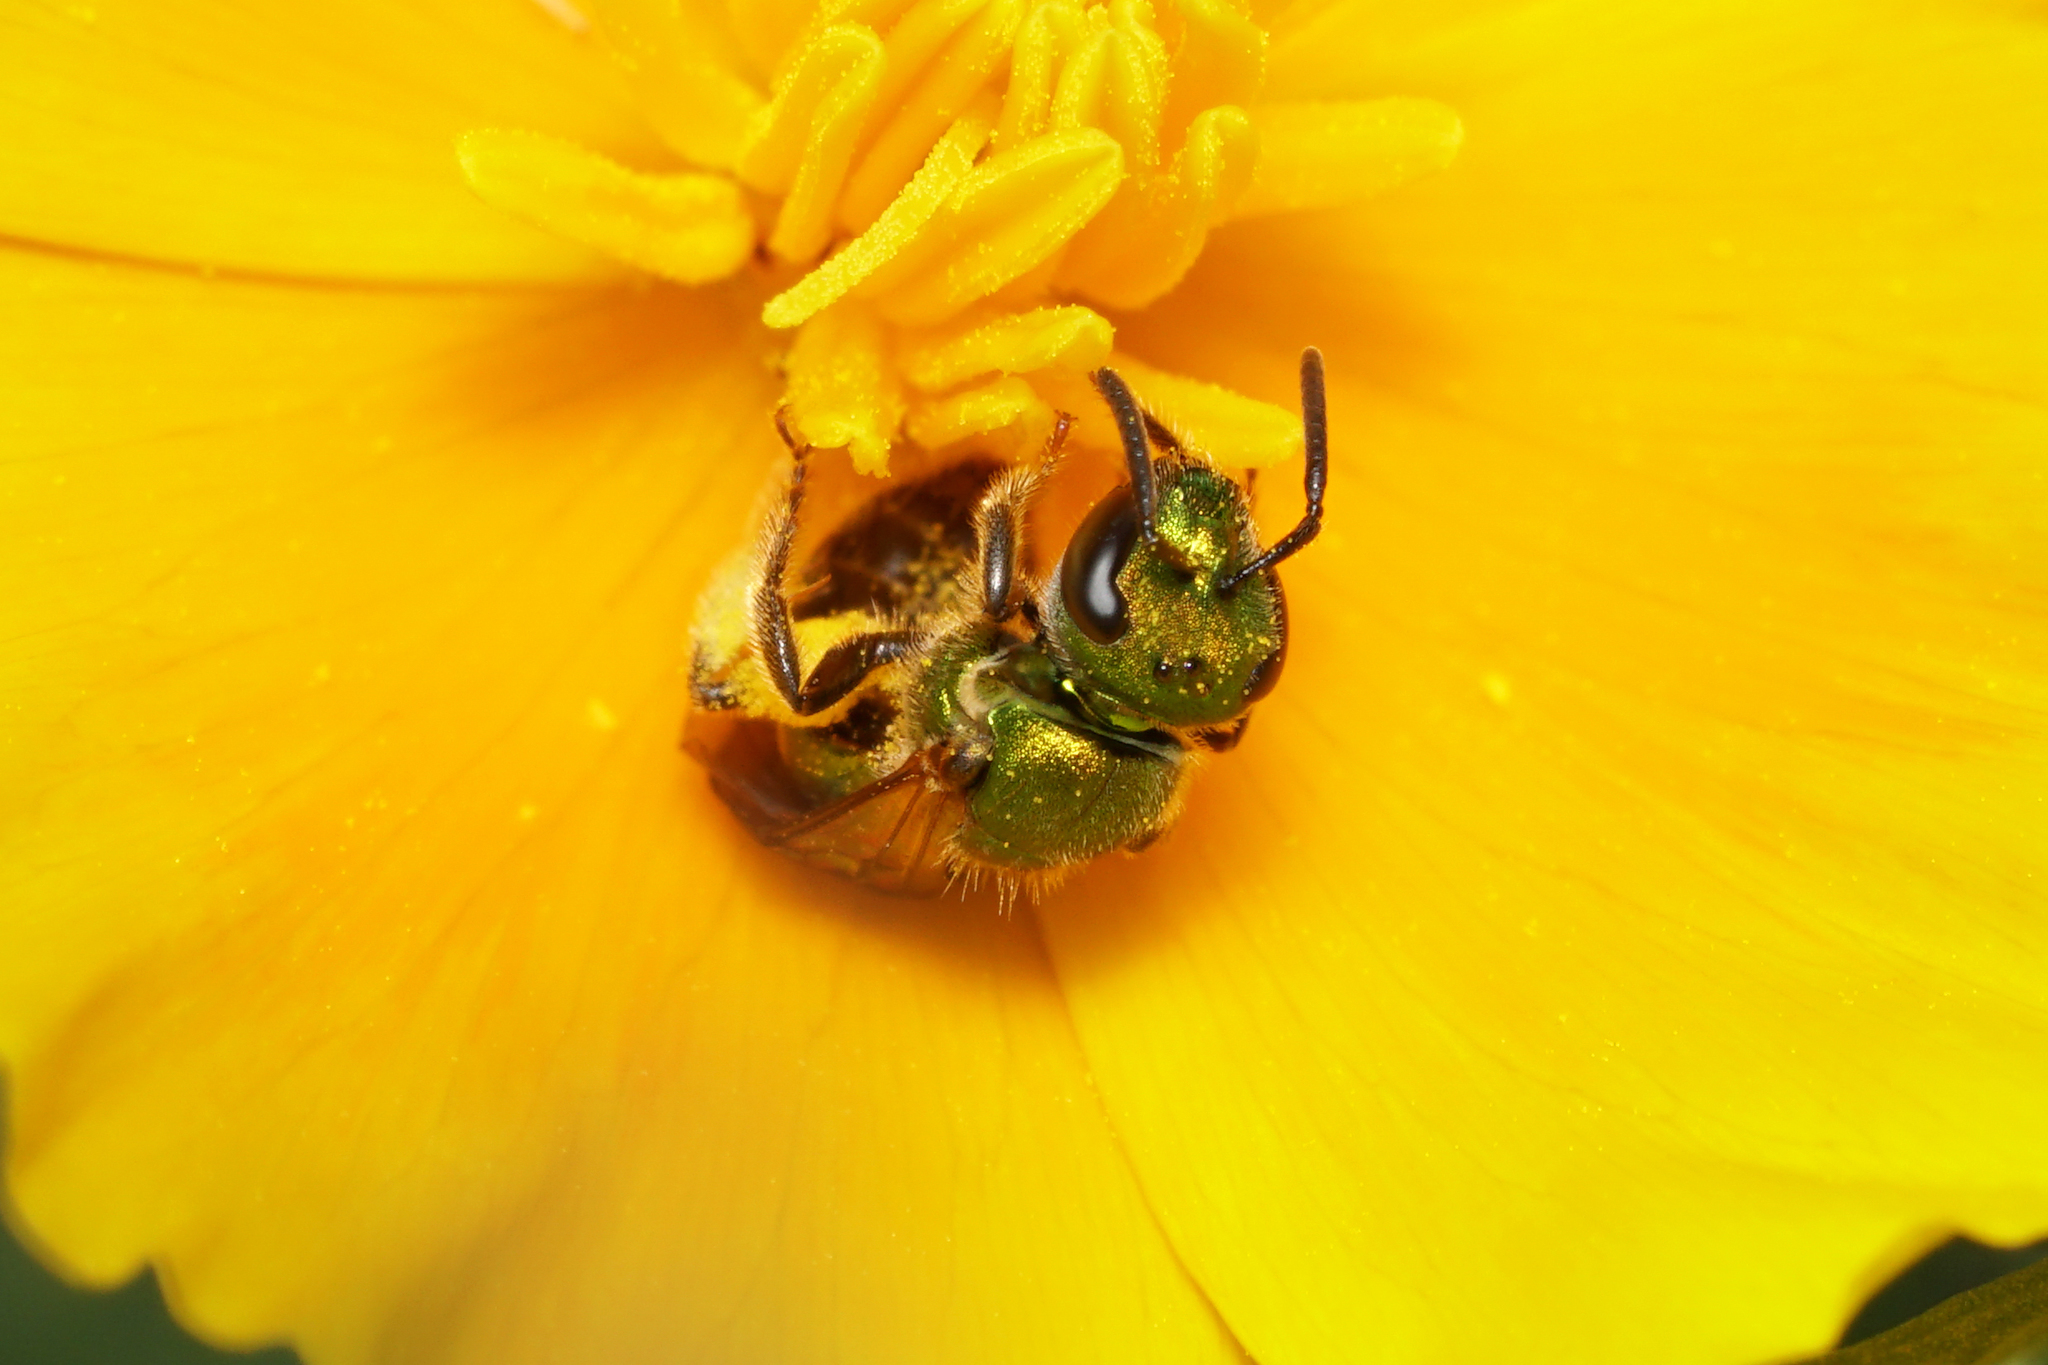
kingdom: Animalia
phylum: Arthropoda
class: Insecta
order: Hymenoptera
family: Halictidae
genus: Augochlora
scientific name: Augochlora pura
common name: Pure green sweat bee
